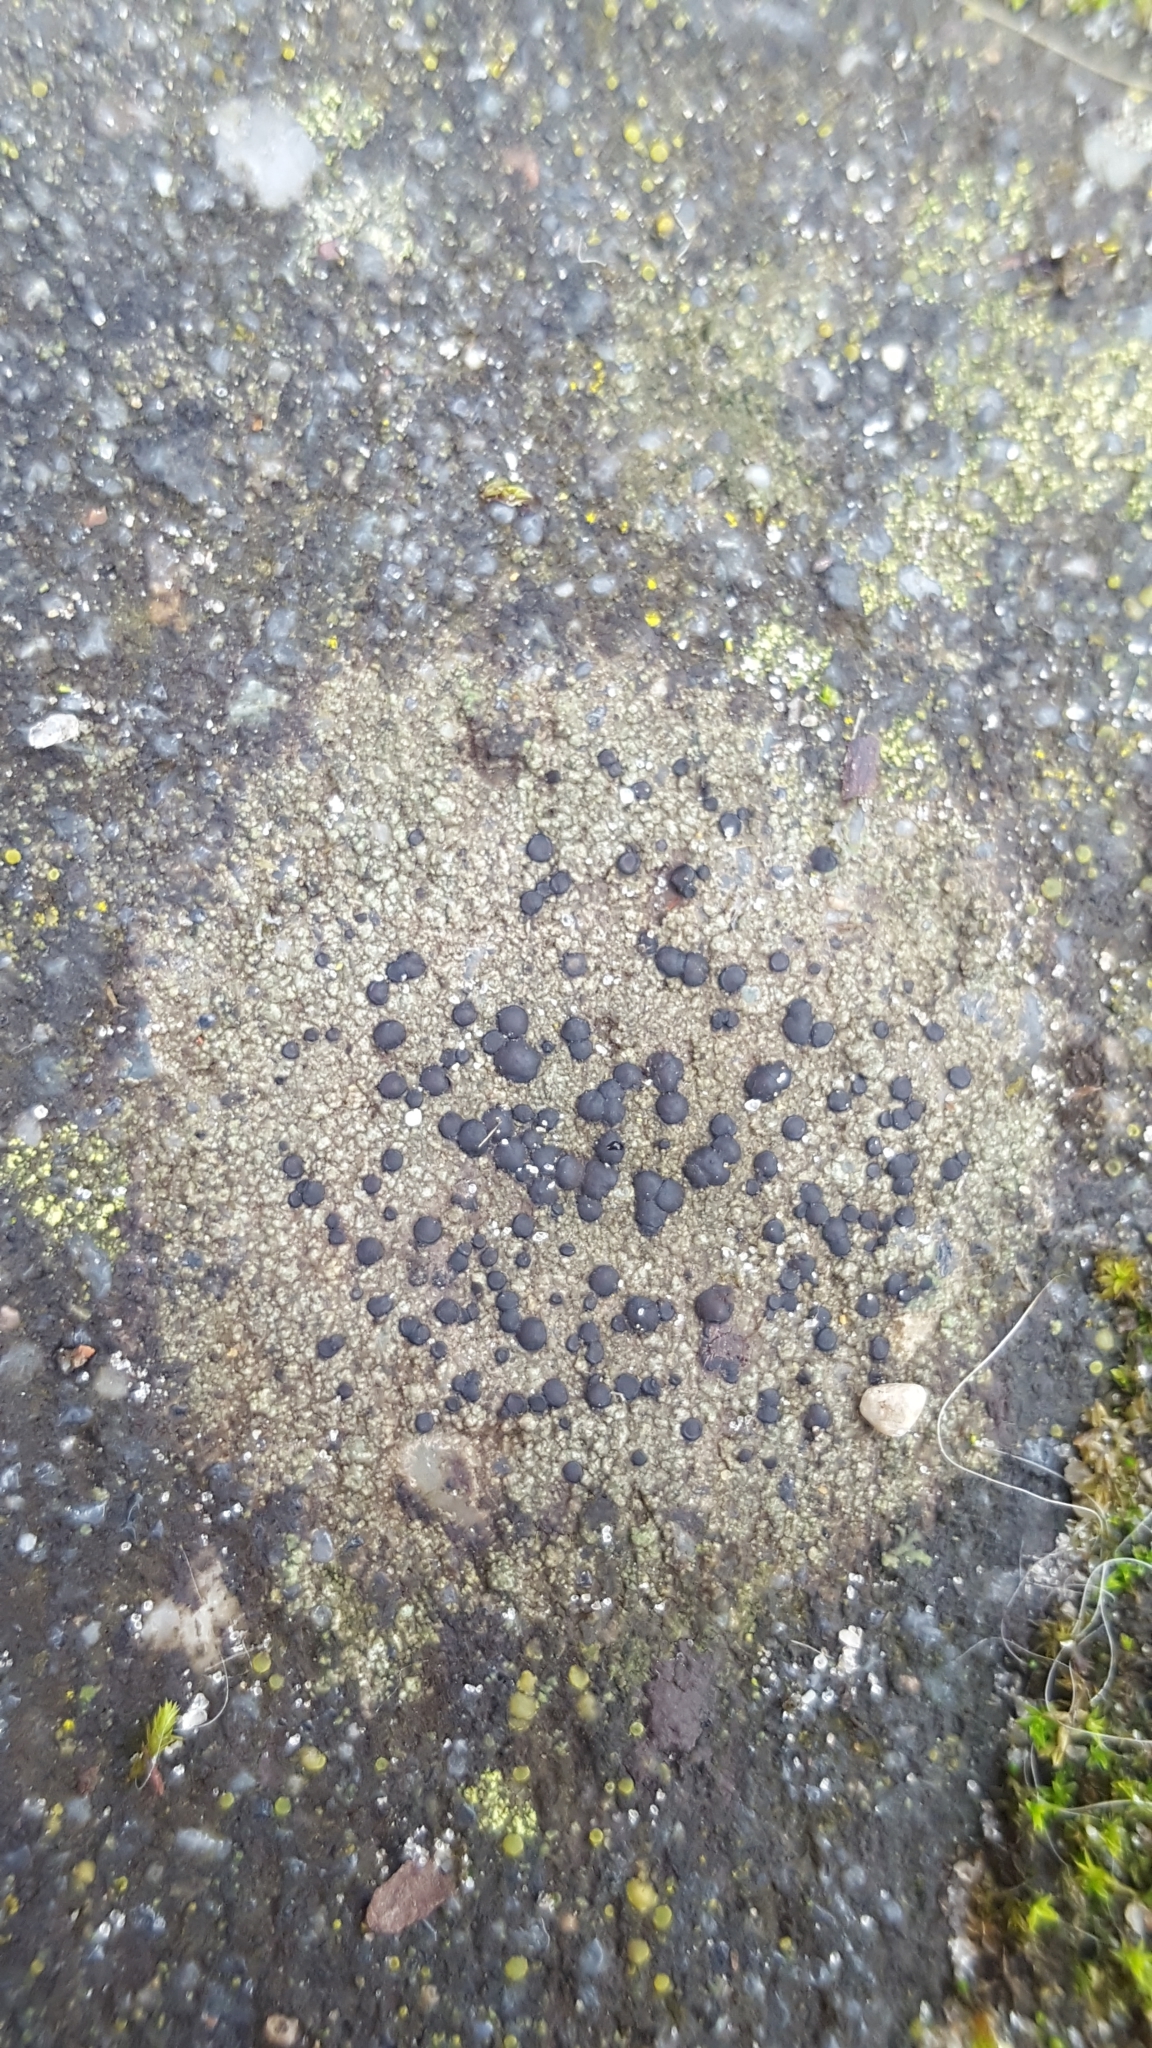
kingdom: Fungi
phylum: Ascomycota
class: Lecanoromycetes
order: Lecanorales
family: Lecanoraceae
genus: Lecidella
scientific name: Lecidella stigmatea
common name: Limestone disc lichen
